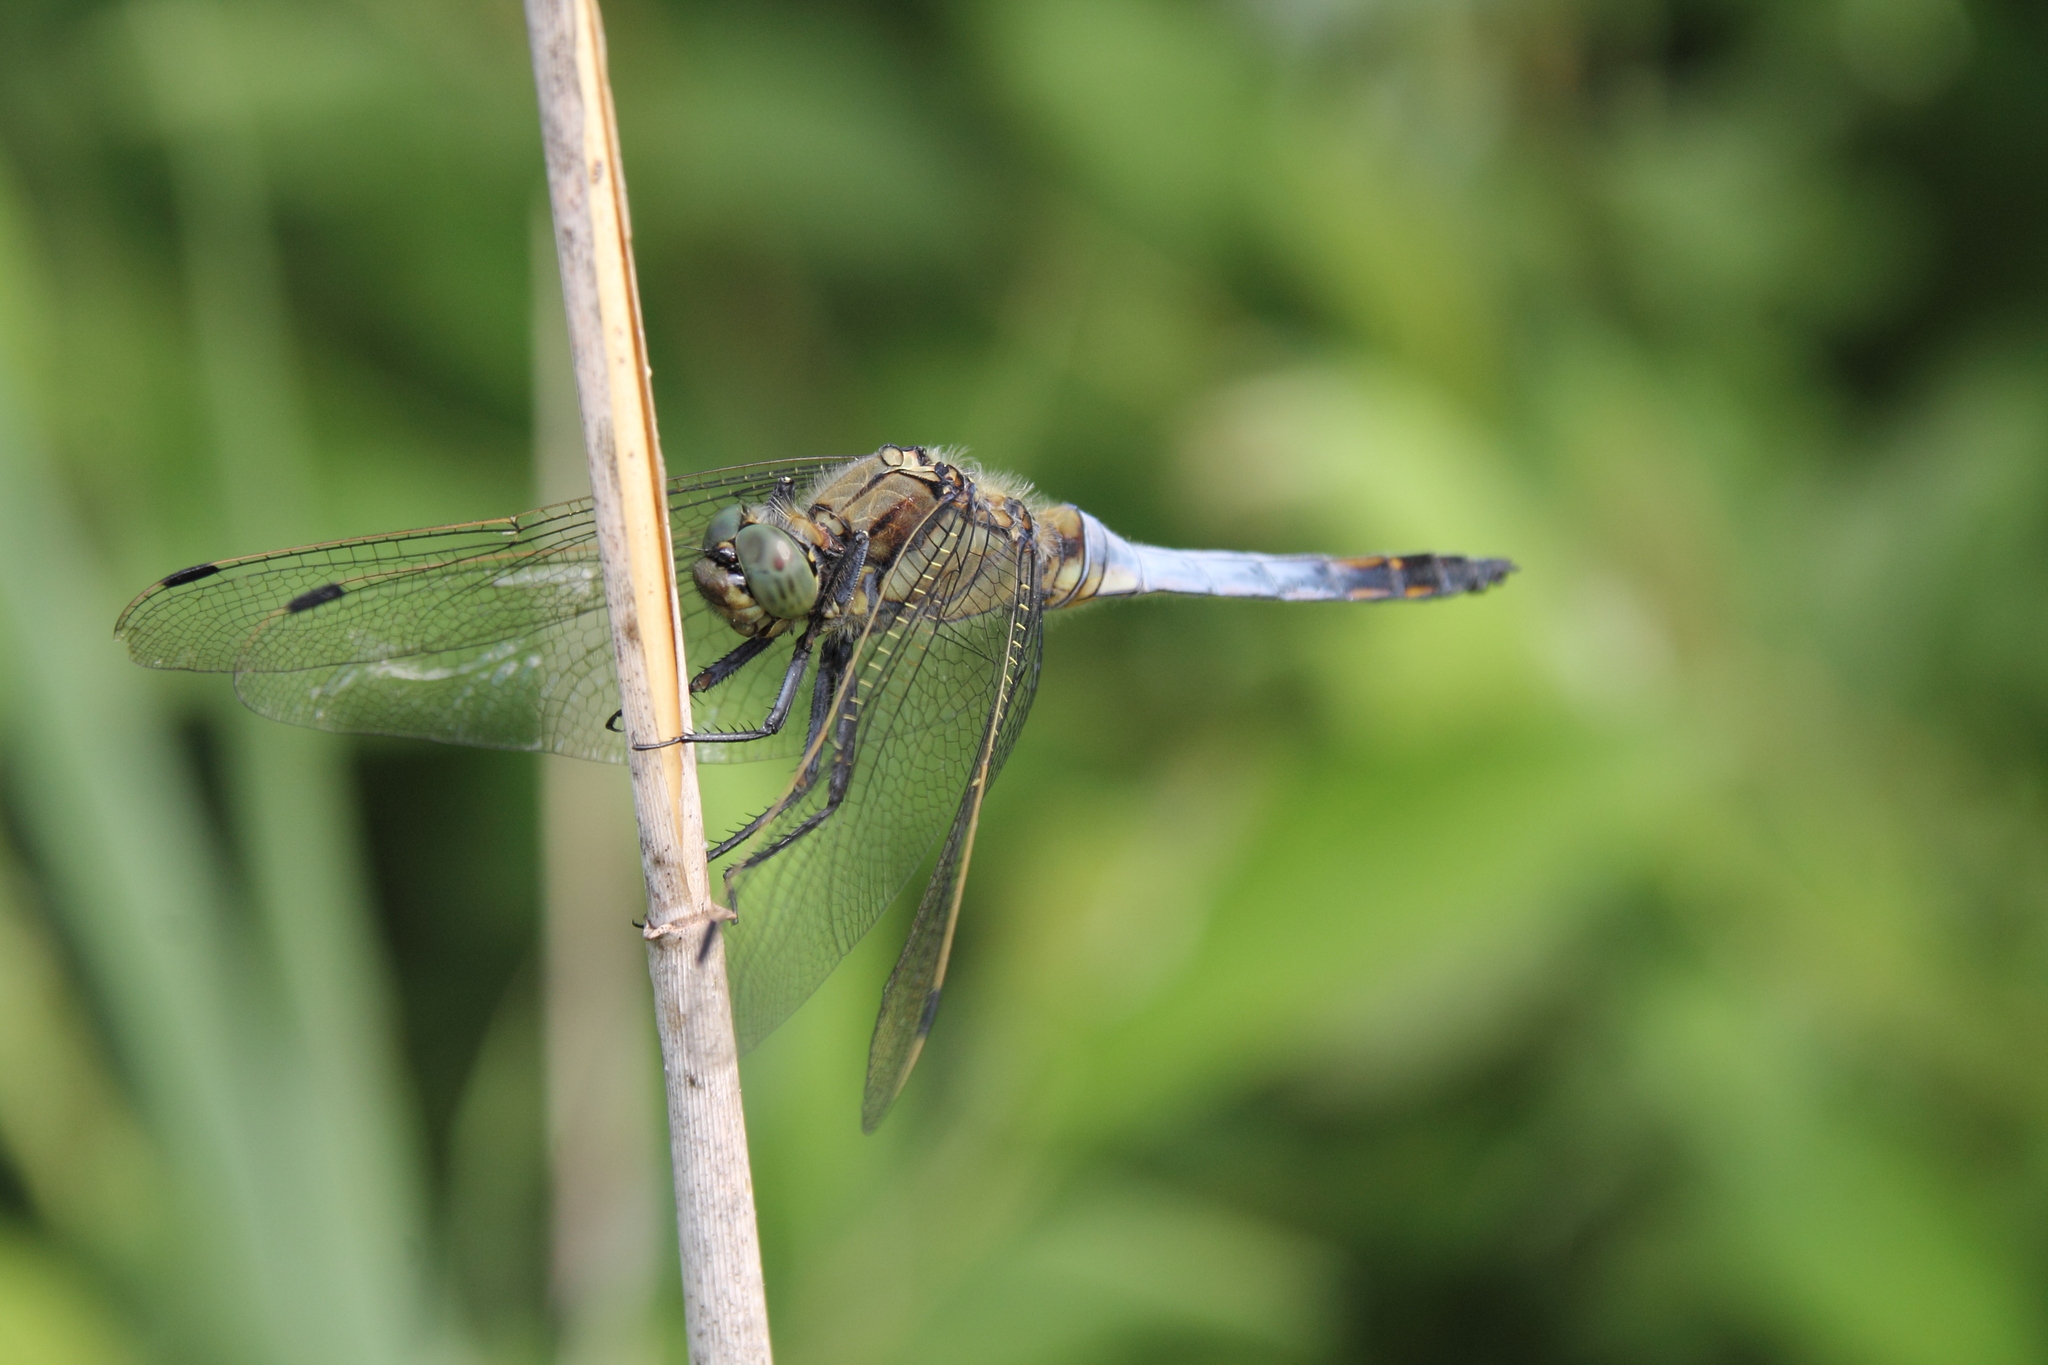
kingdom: Animalia
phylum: Arthropoda
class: Insecta
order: Odonata
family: Libellulidae
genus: Orthetrum
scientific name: Orthetrum cancellatum
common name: Black-tailed skimmer
